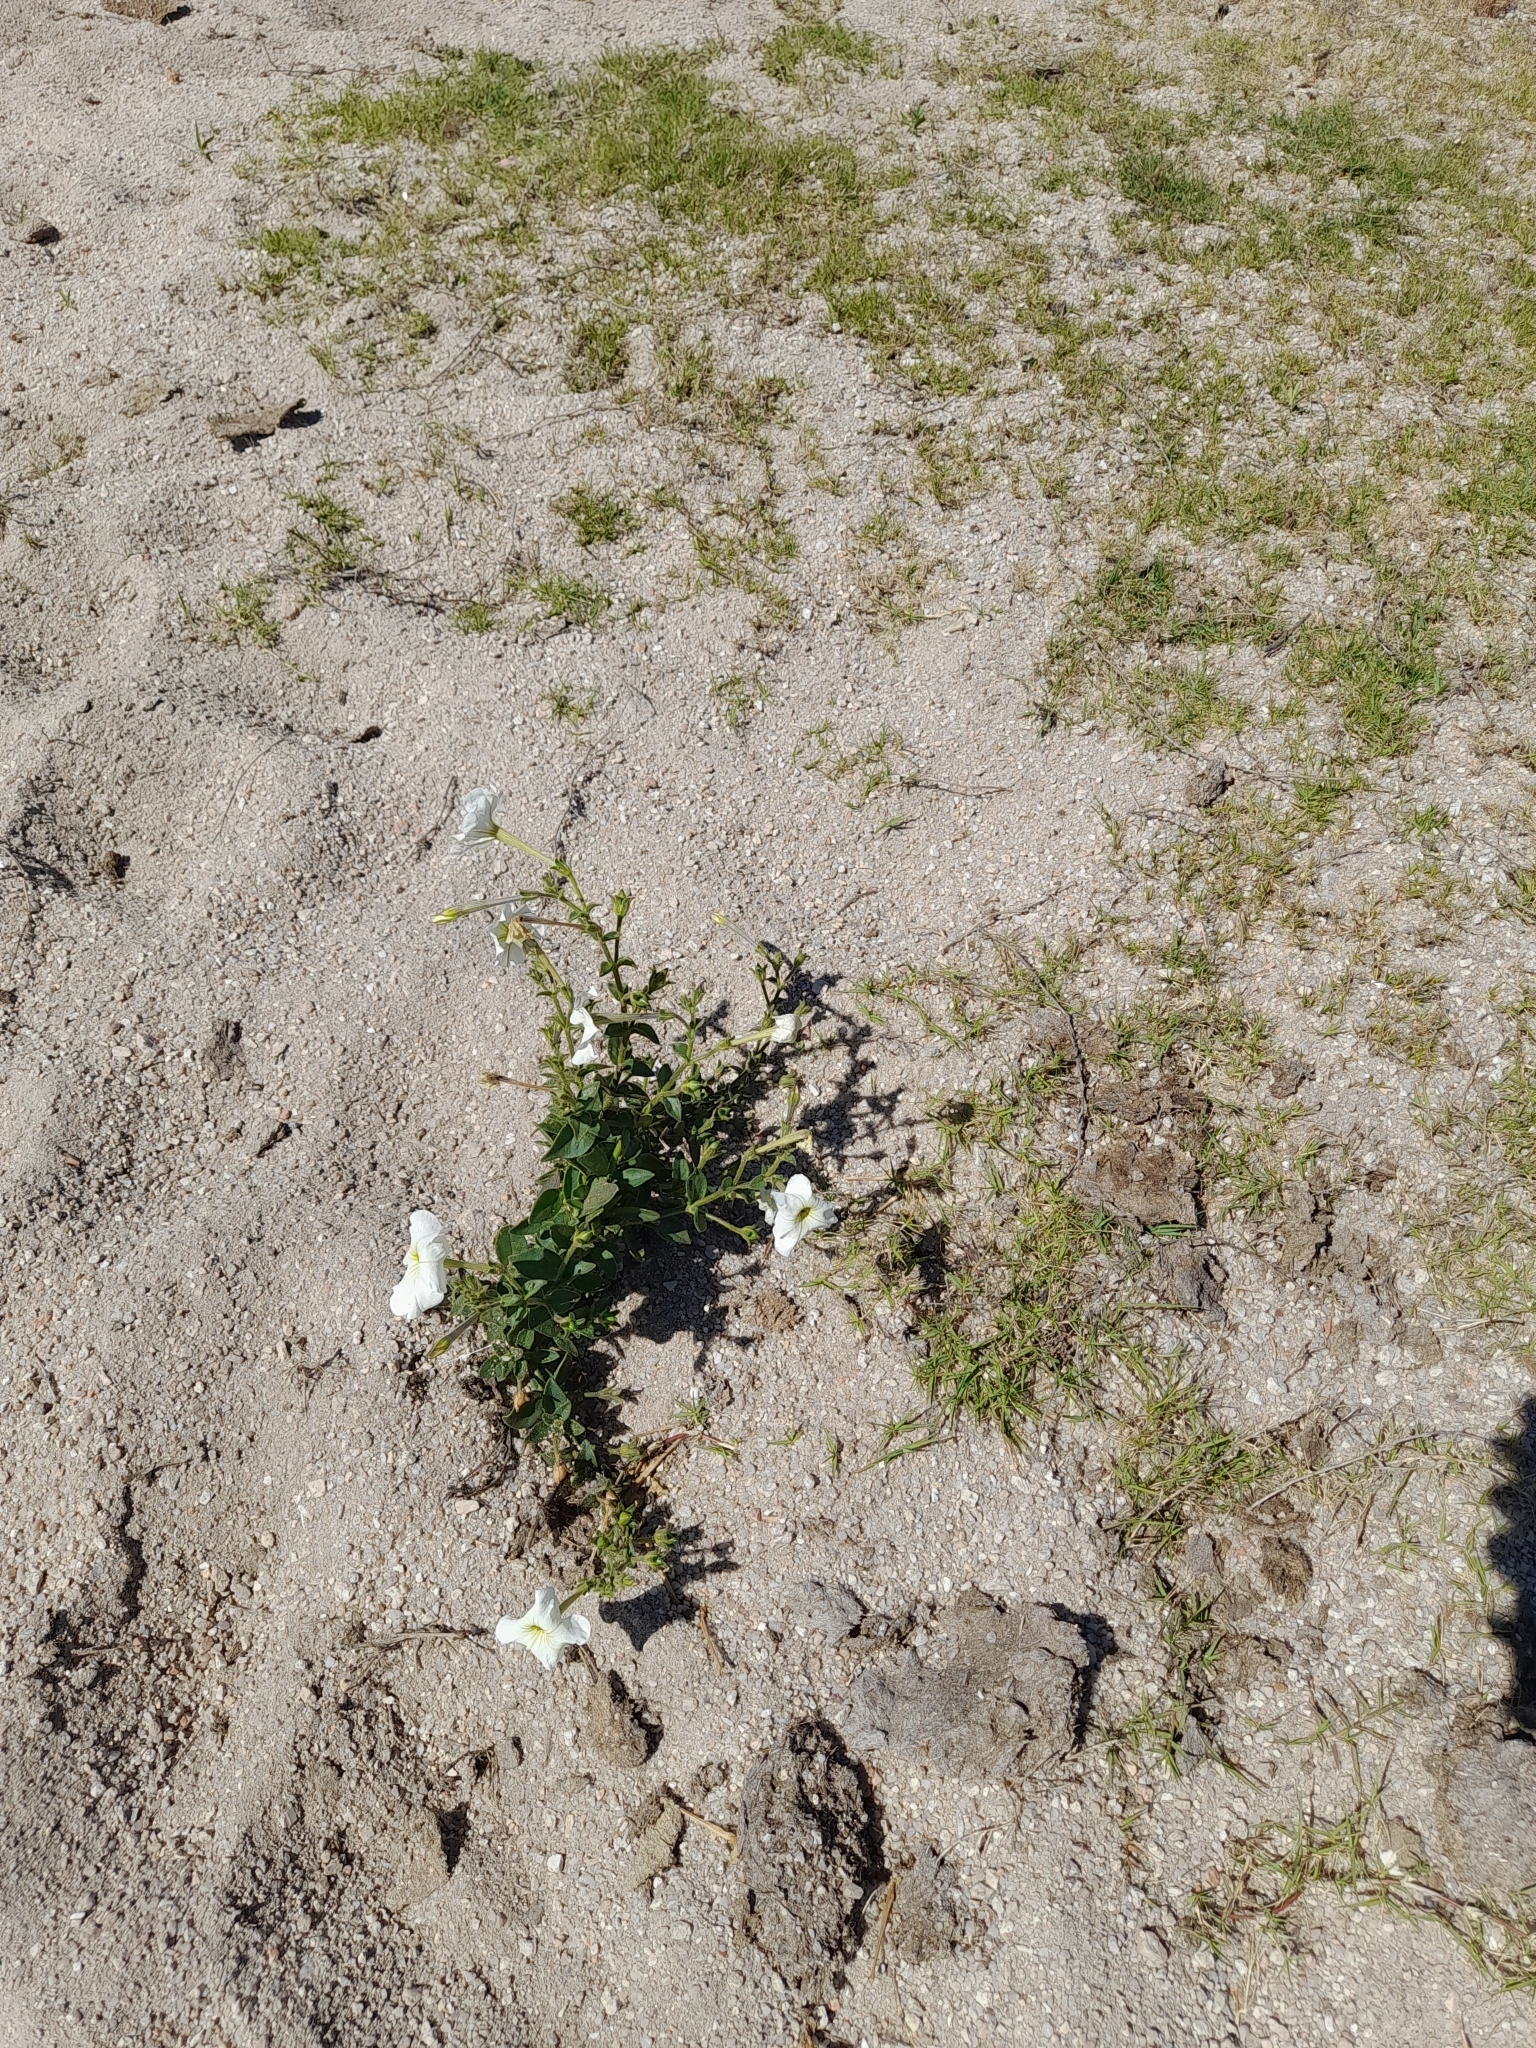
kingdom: Plantae
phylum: Tracheophyta
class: Magnoliopsida
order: Solanales
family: Solanaceae
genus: Petunia
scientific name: Petunia axillaris
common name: Large white petunia
